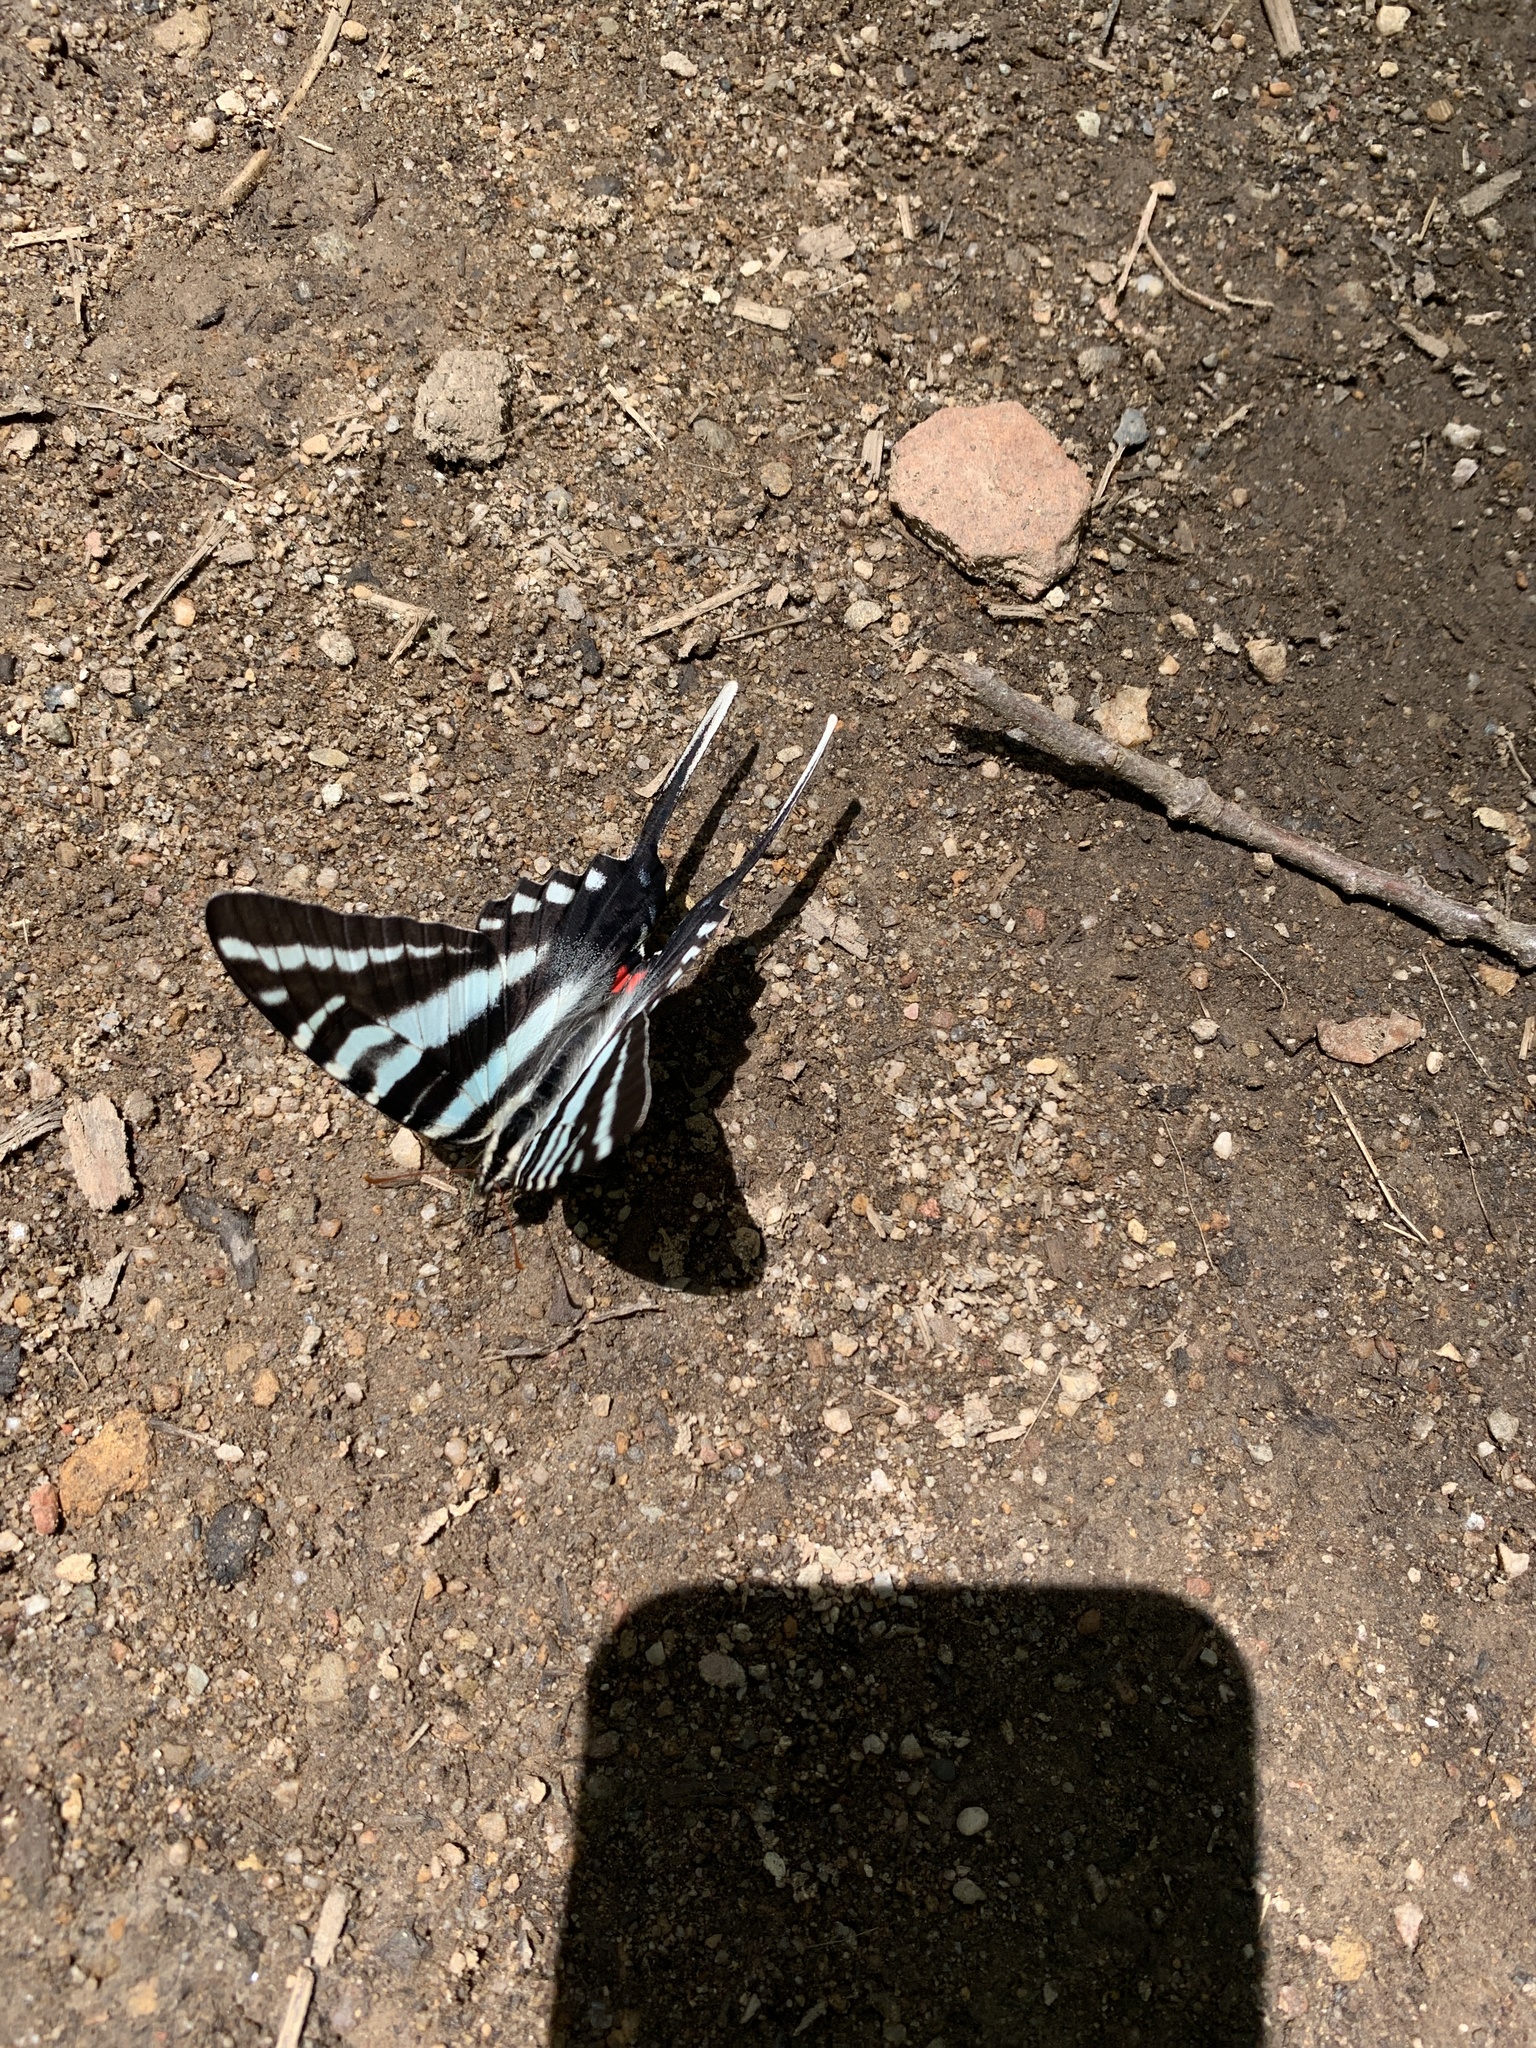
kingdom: Animalia
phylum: Arthropoda
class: Insecta
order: Lepidoptera
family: Papilionidae
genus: Protographium
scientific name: Protographium marcellus
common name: Zebra swallowtail
